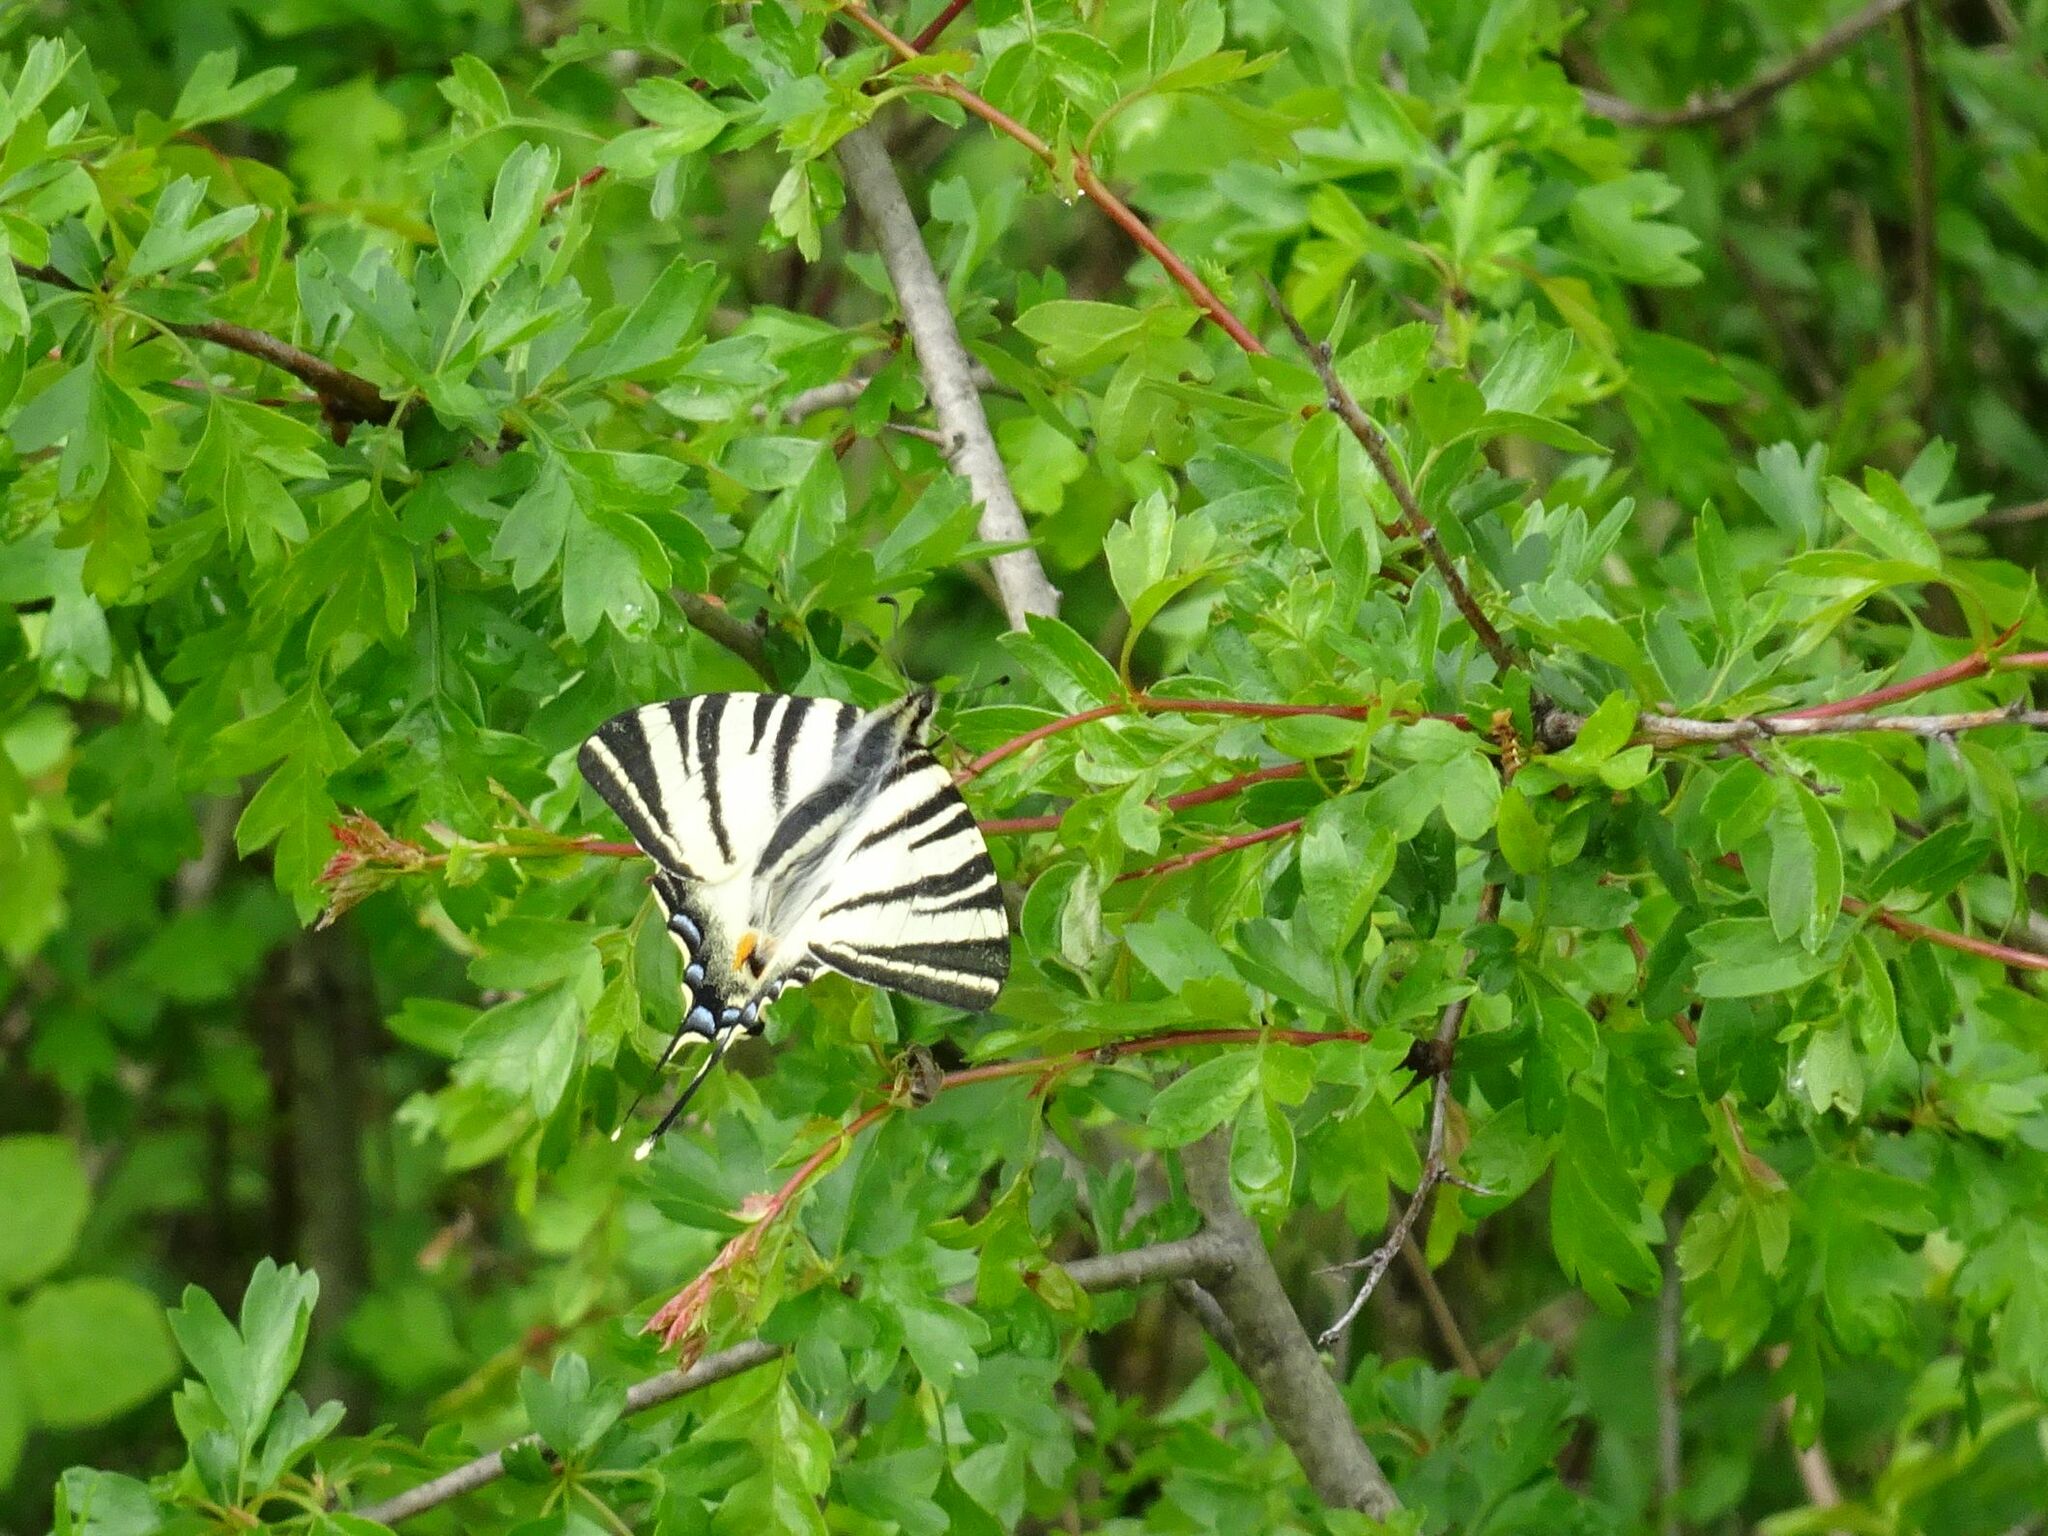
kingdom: Animalia
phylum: Arthropoda
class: Insecta
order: Lepidoptera
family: Papilionidae
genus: Iphiclides
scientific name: Iphiclides podalirius
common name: Scarce swallowtail
